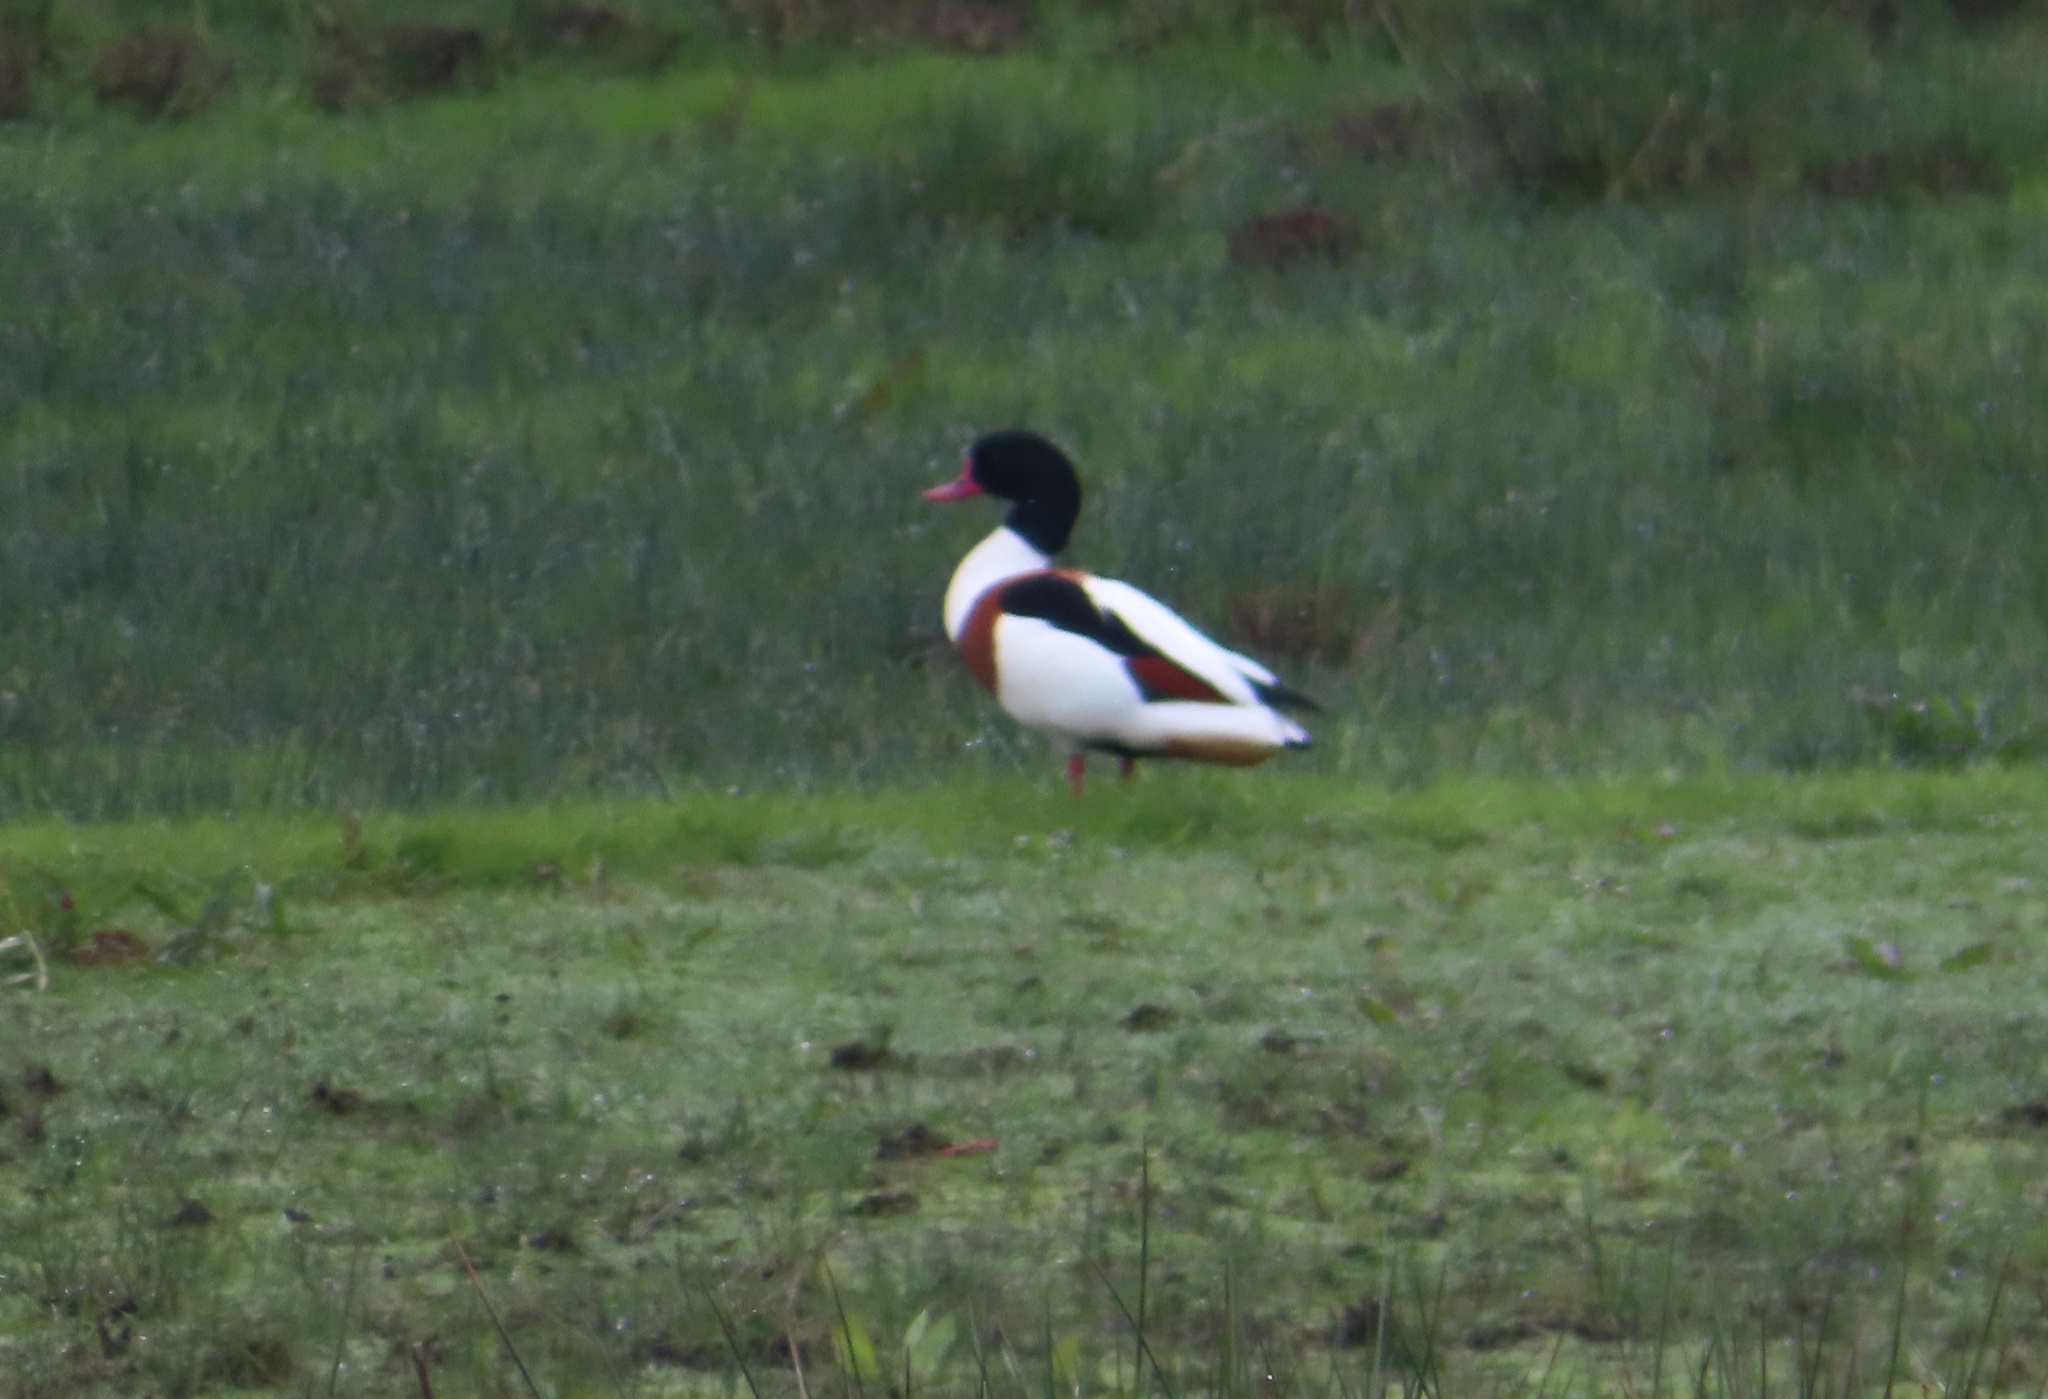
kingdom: Animalia
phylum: Chordata
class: Aves
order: Anseriformes
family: Anatidae
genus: Tadorna
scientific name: Tadorna tadorna
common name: Common shelduck
